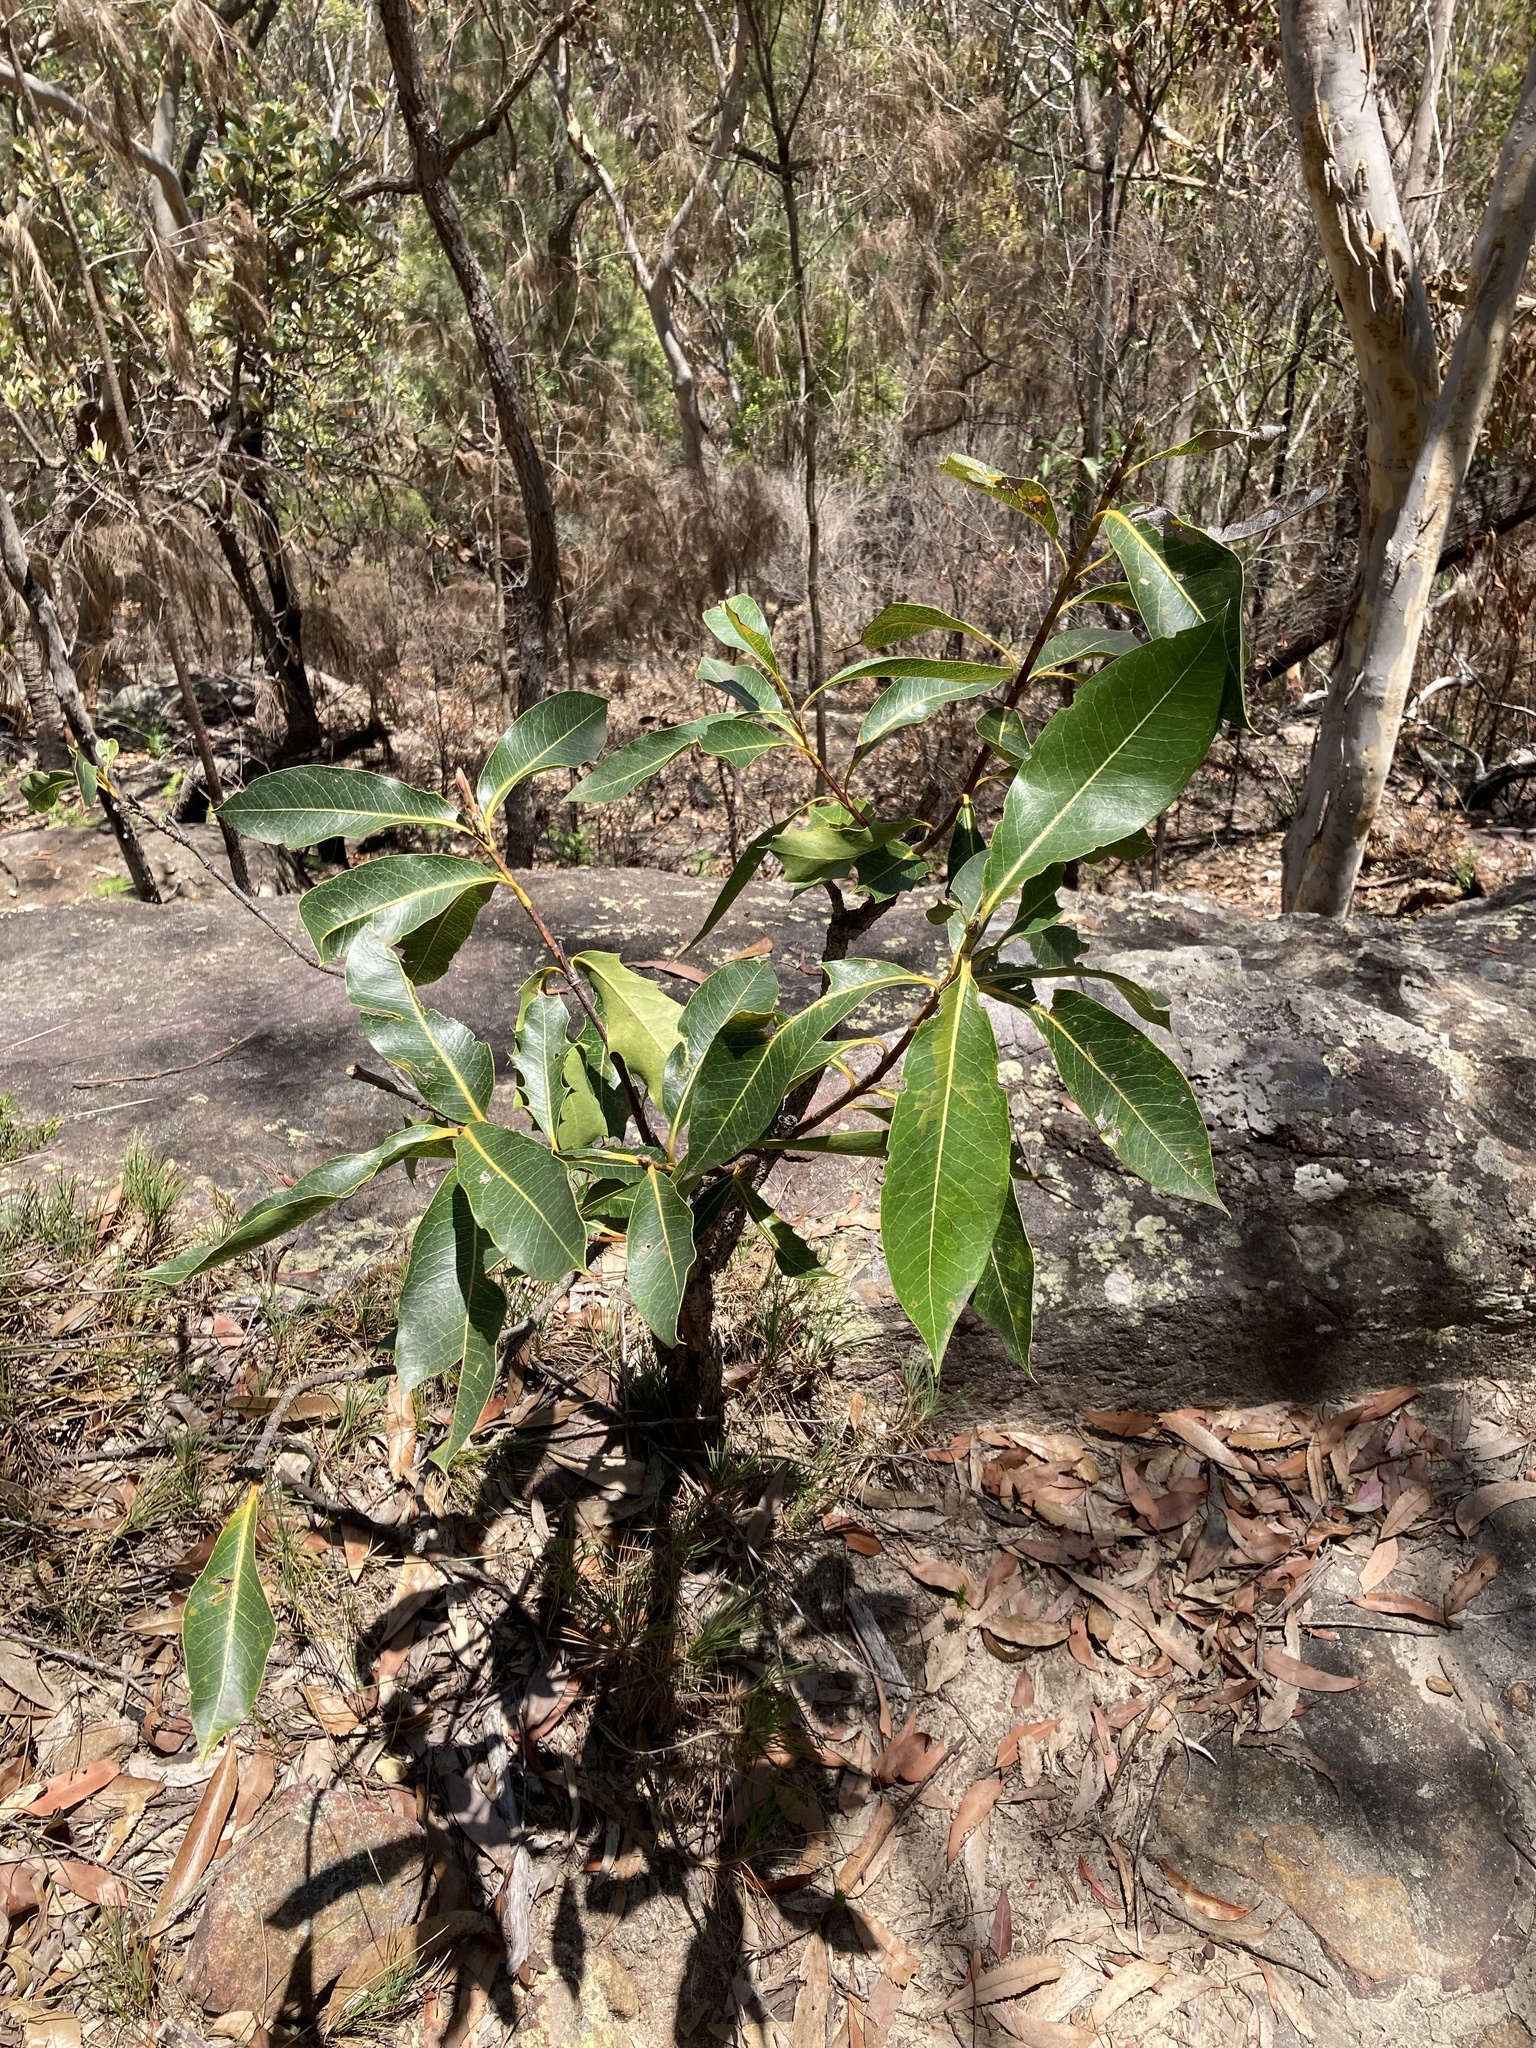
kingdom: Plantae
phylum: Tracheophyta
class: Magnoliopsida
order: Proteales
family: Proteaceae
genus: Xylomelum
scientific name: Xylomelum pyriforme
